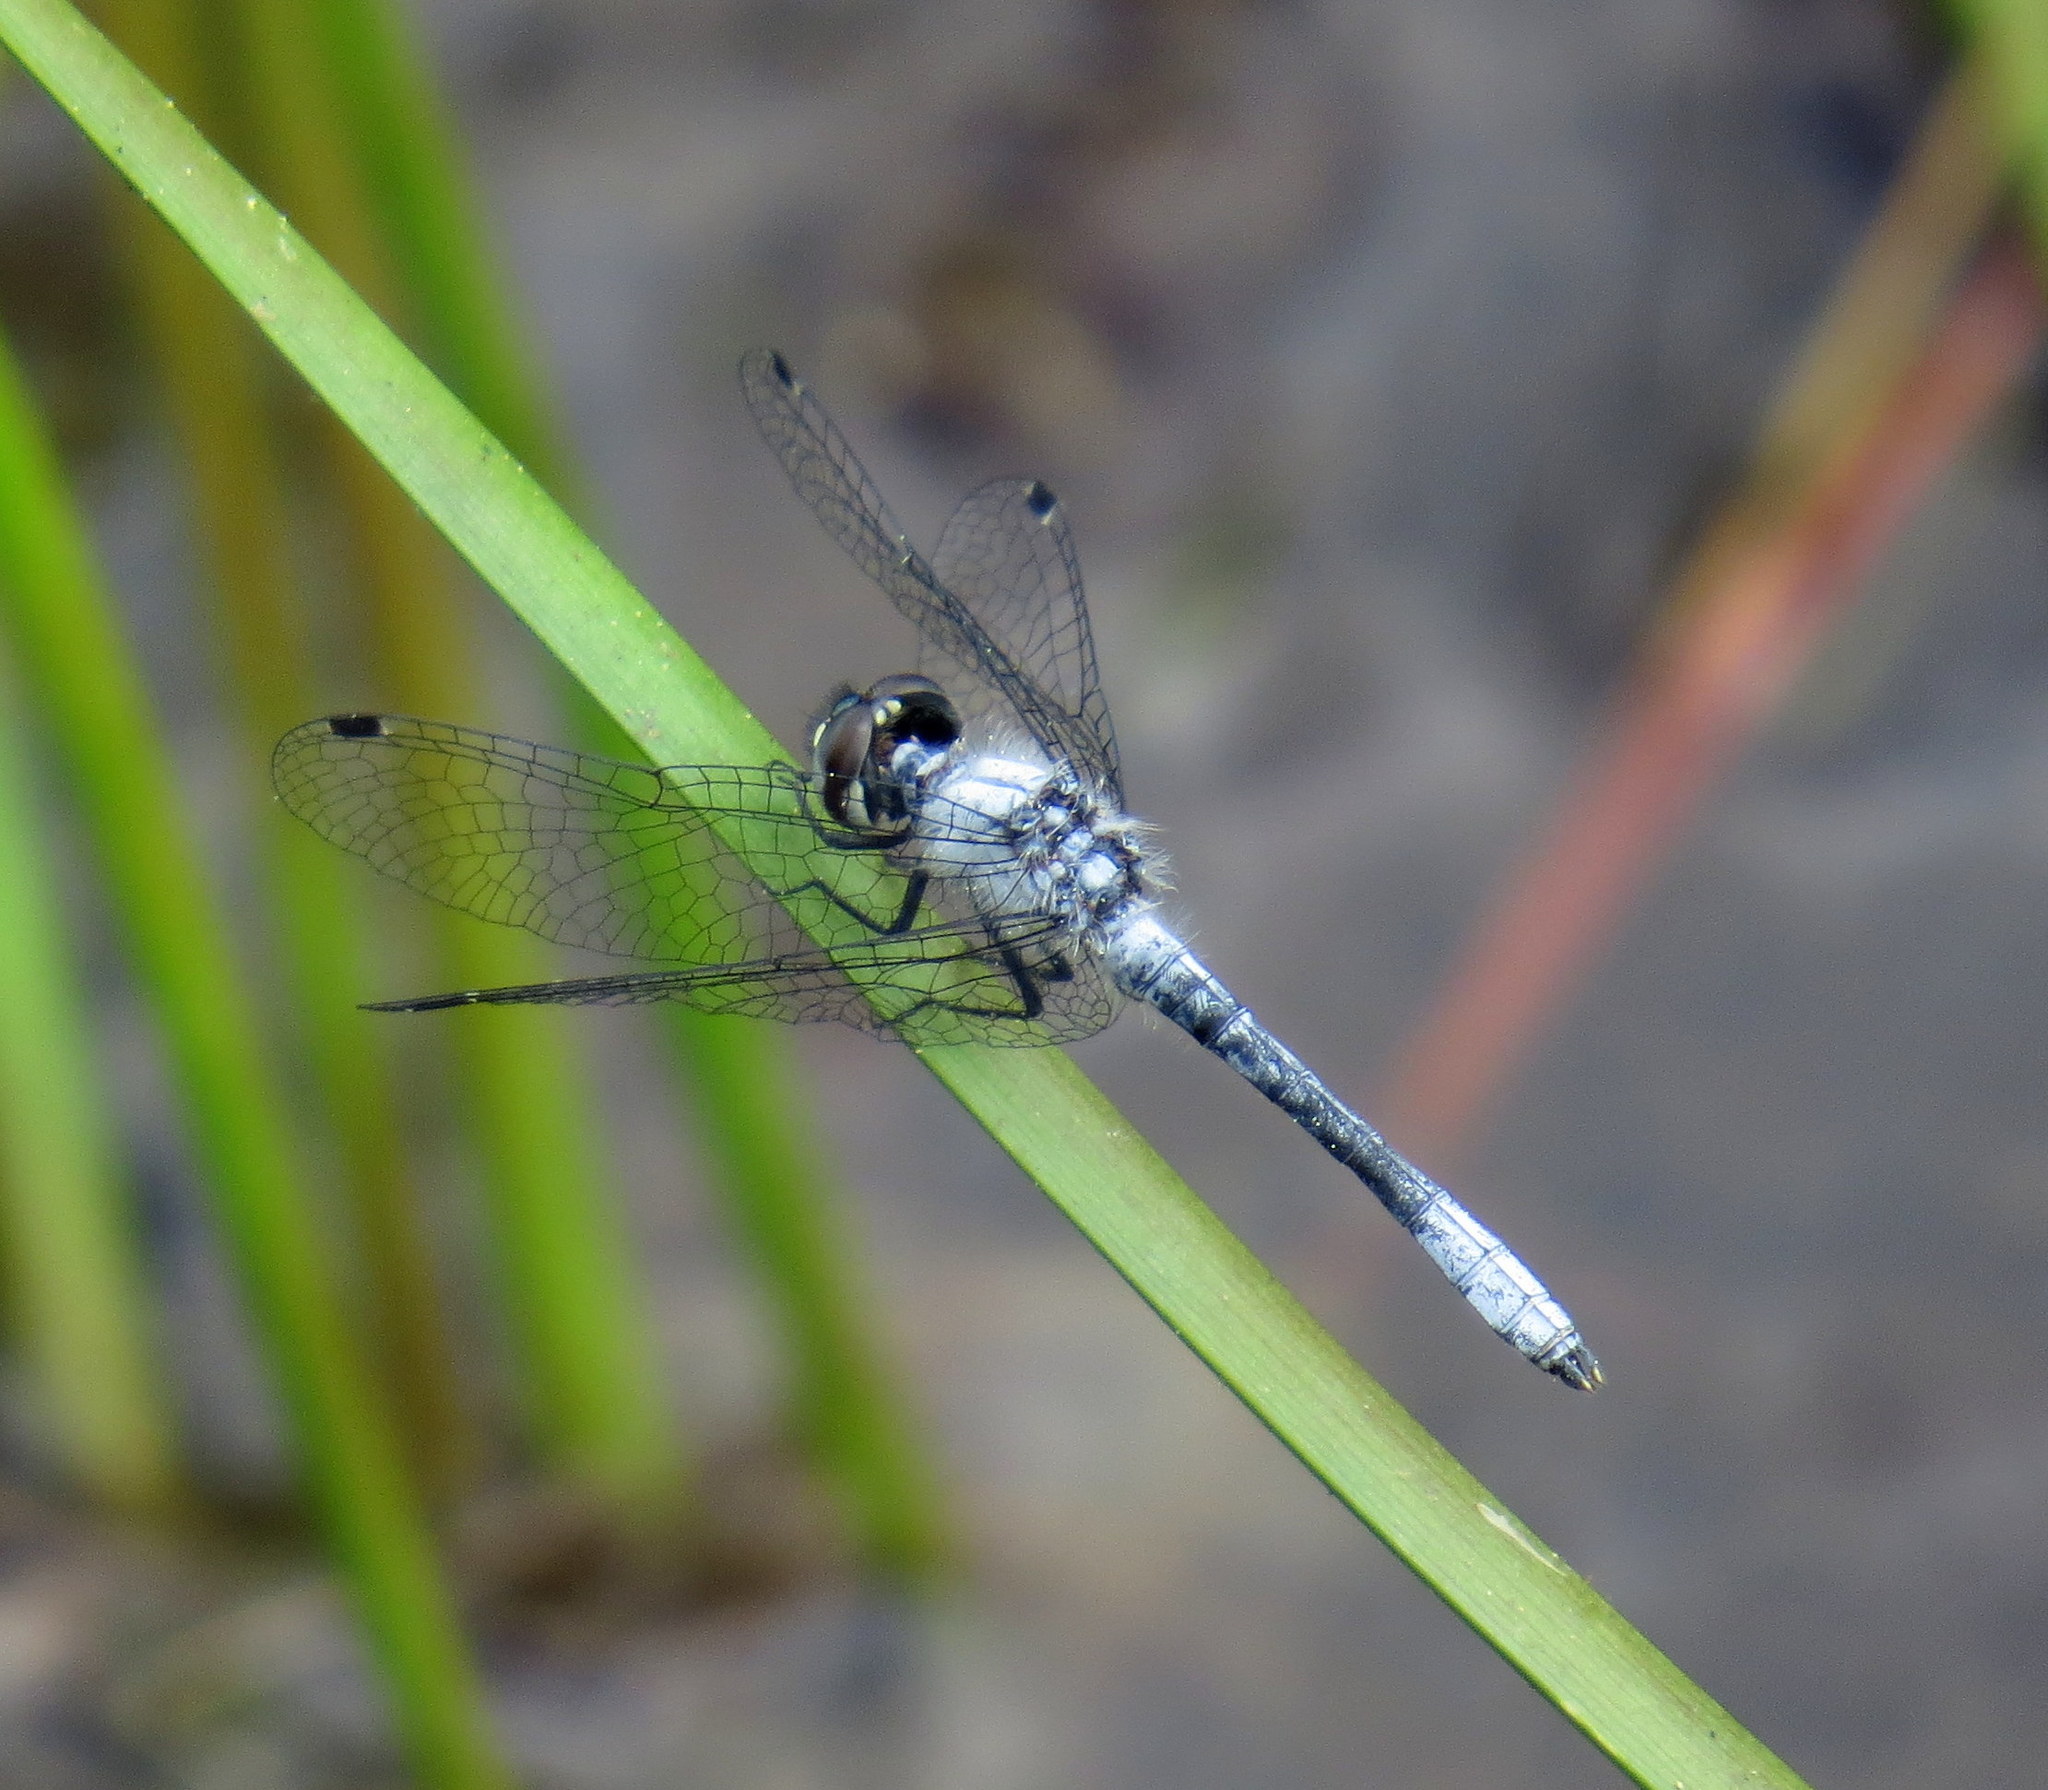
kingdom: Animalia
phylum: Arthropoda
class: Insecta
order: Odonata
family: Libellulidae
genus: Nannothemis
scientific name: Nannothemis bella
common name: Elfin skimmer
